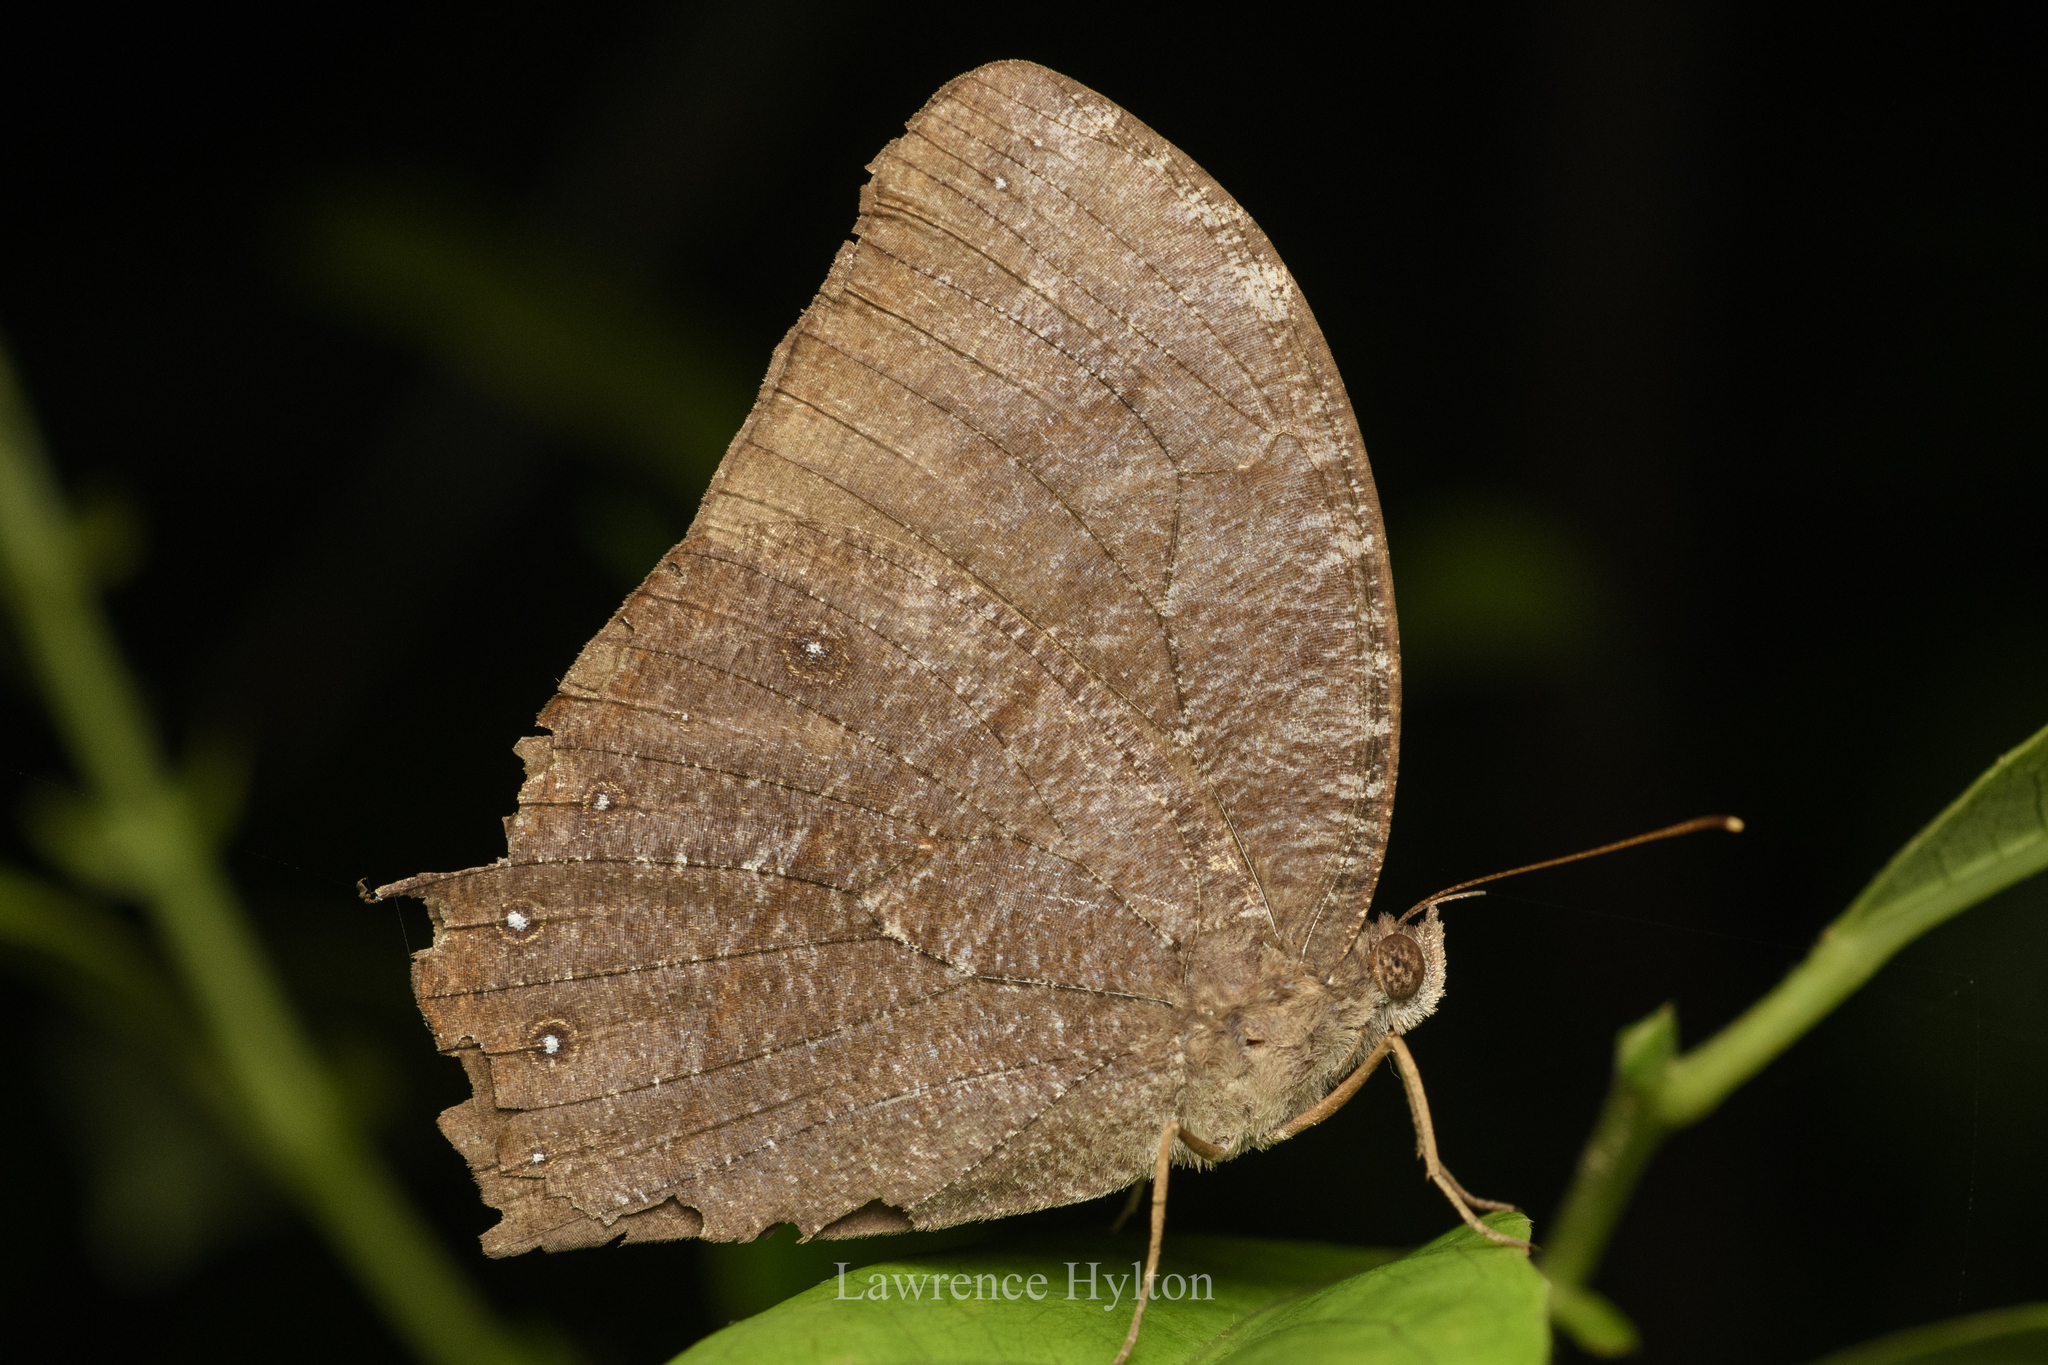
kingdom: Animalia
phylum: Arthropoda
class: Insecta
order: Lepidoptera
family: Nymphalidae
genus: Melanitis
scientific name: Melanitis phedima
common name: Dark evening brown
